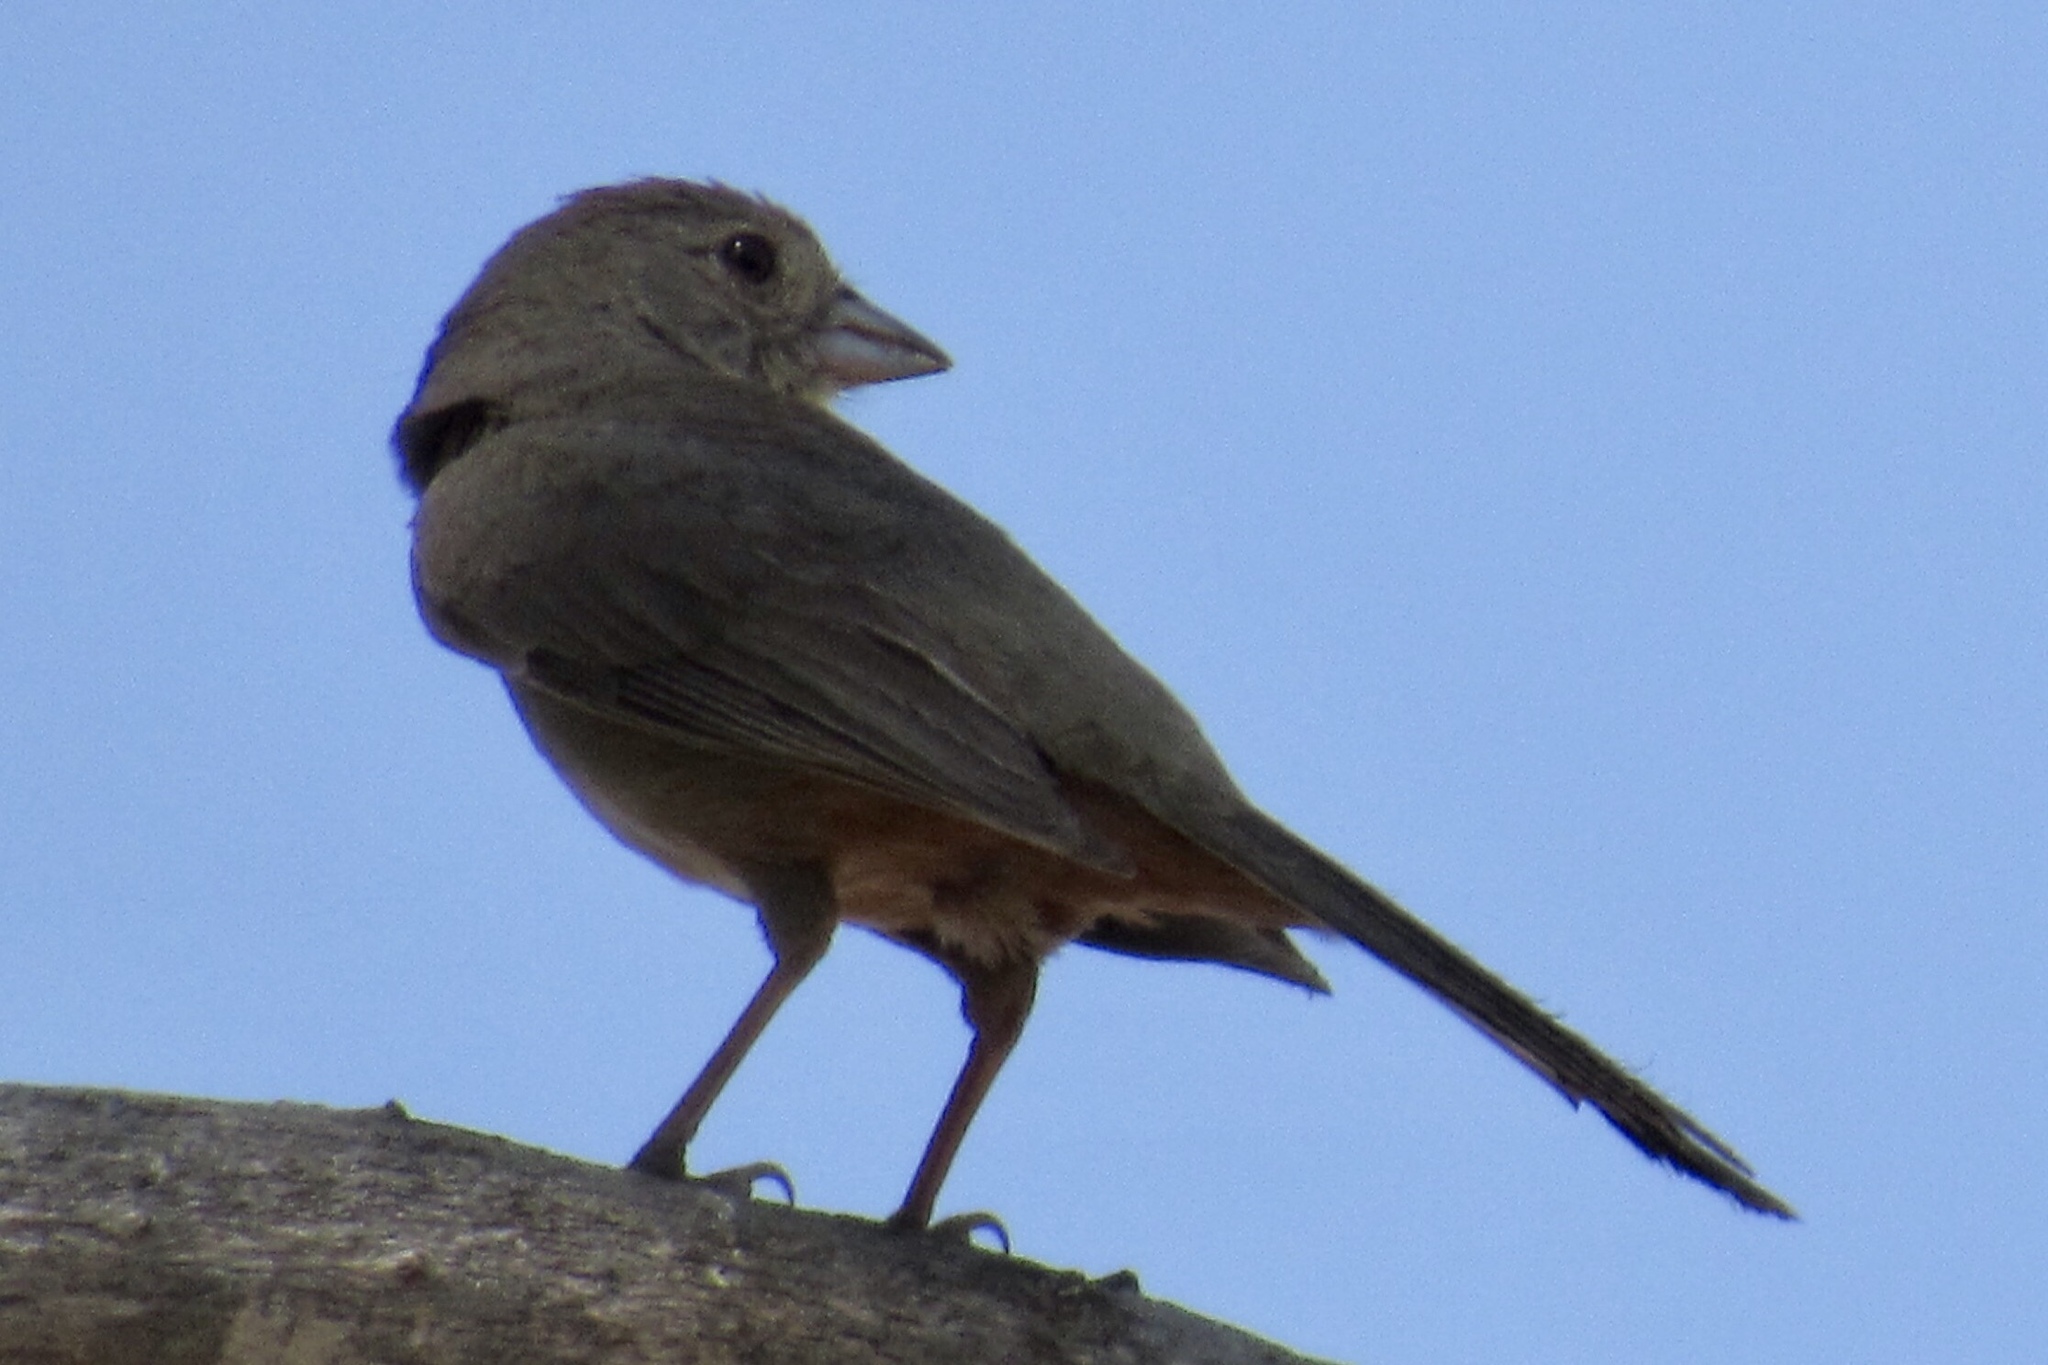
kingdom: Animalia
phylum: Chordata
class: Aves
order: Passeriformes
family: Passerellidae
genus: Melozone
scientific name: Melozone fusca
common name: Canyon towhee
